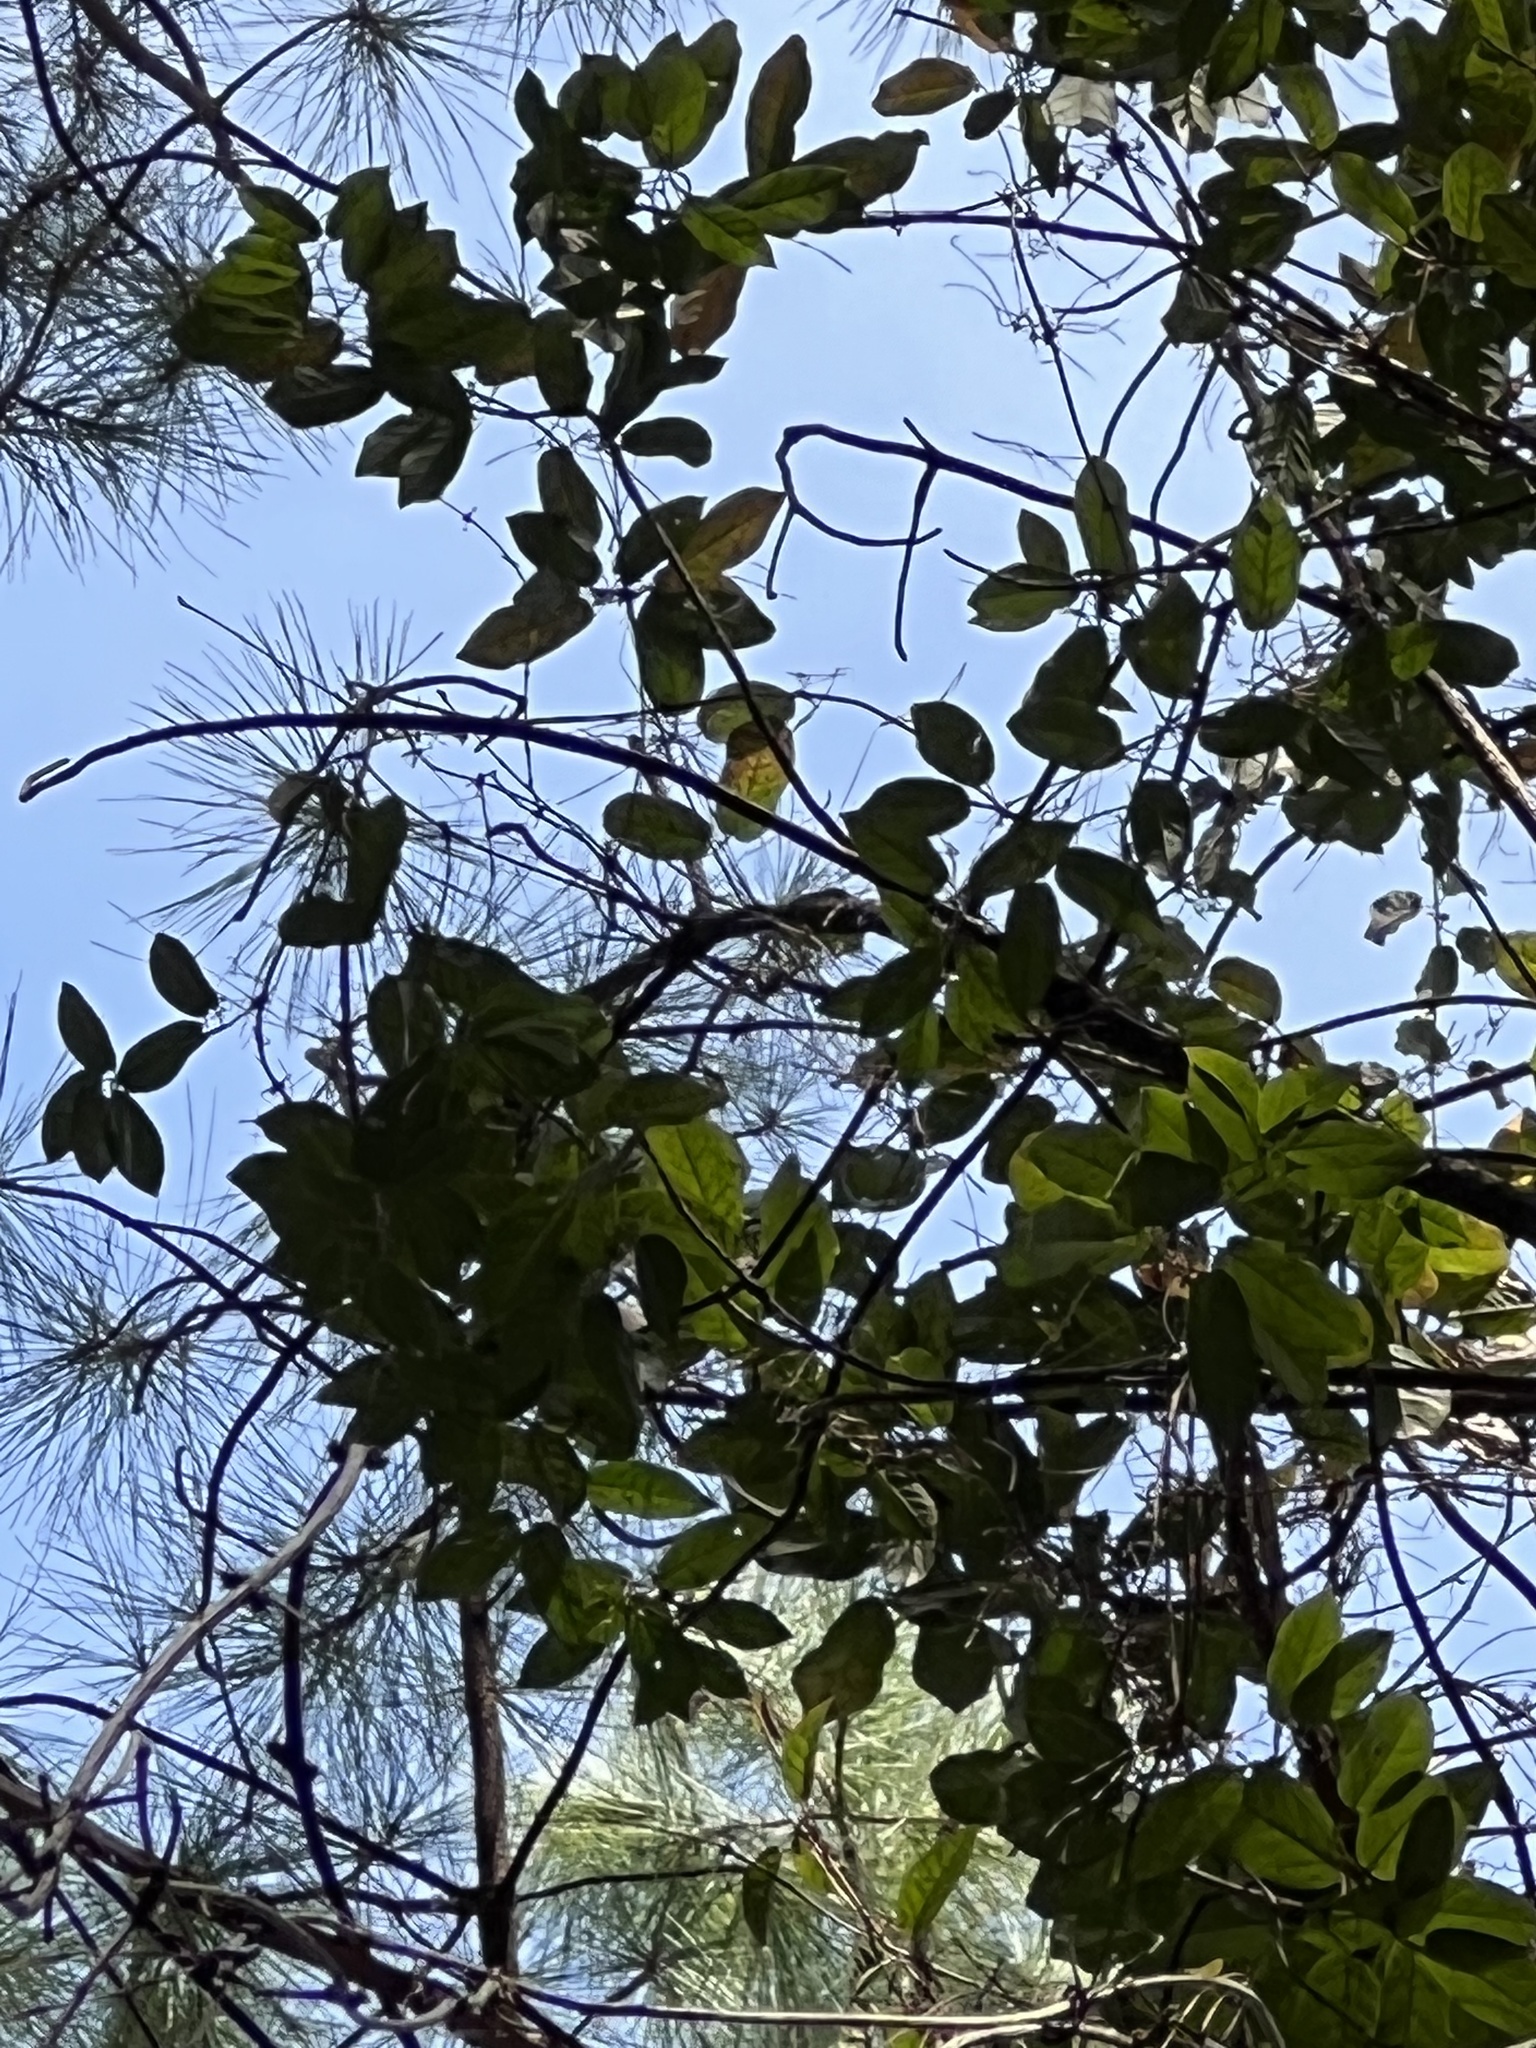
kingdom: Plantae
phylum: Tracheophyta
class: Liliopsida
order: Liliales
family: Smilacaceae
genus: Smilax
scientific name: Smilax maritima
